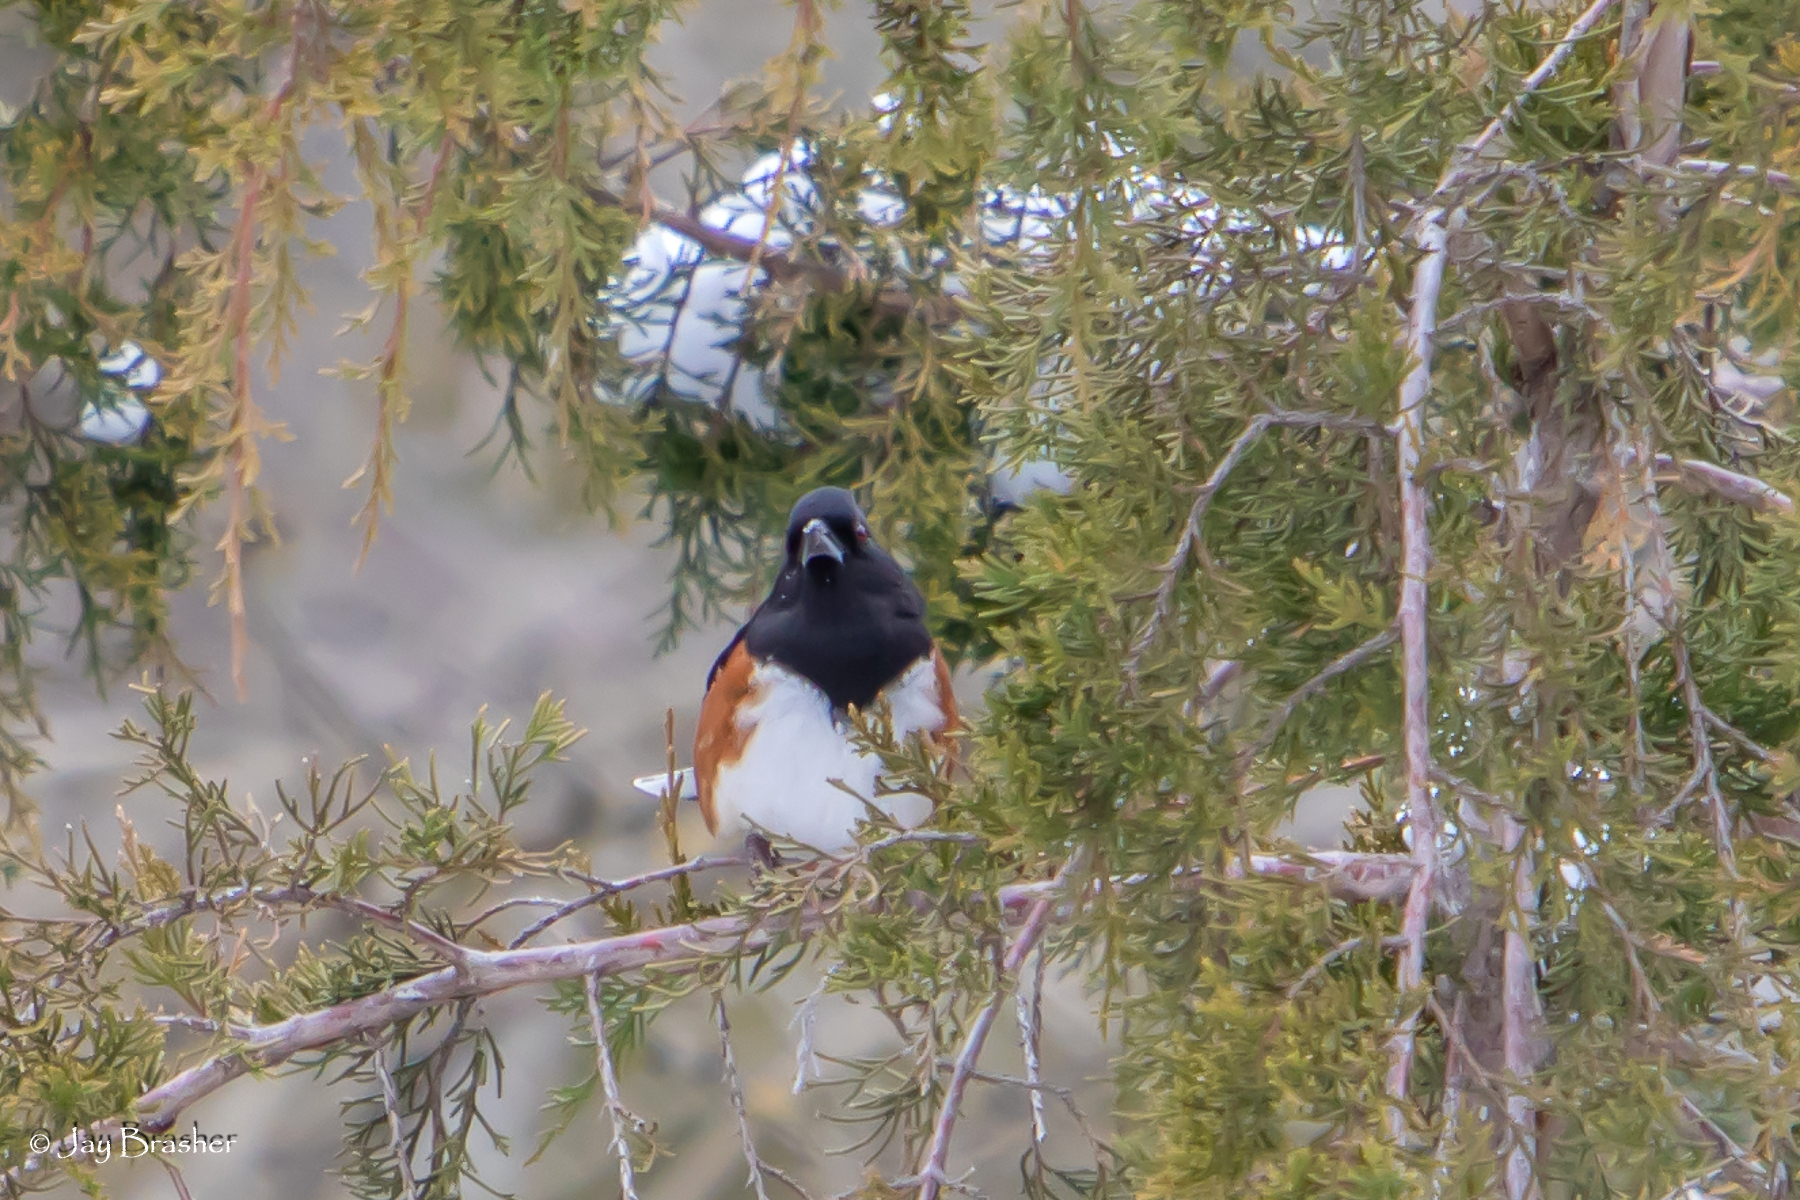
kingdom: Animalia
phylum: Chordata
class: Aves
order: Passeriformes
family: Passerellidae
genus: Pipilo
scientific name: Pipilo erythrophthalmus
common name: Eastern towhee
